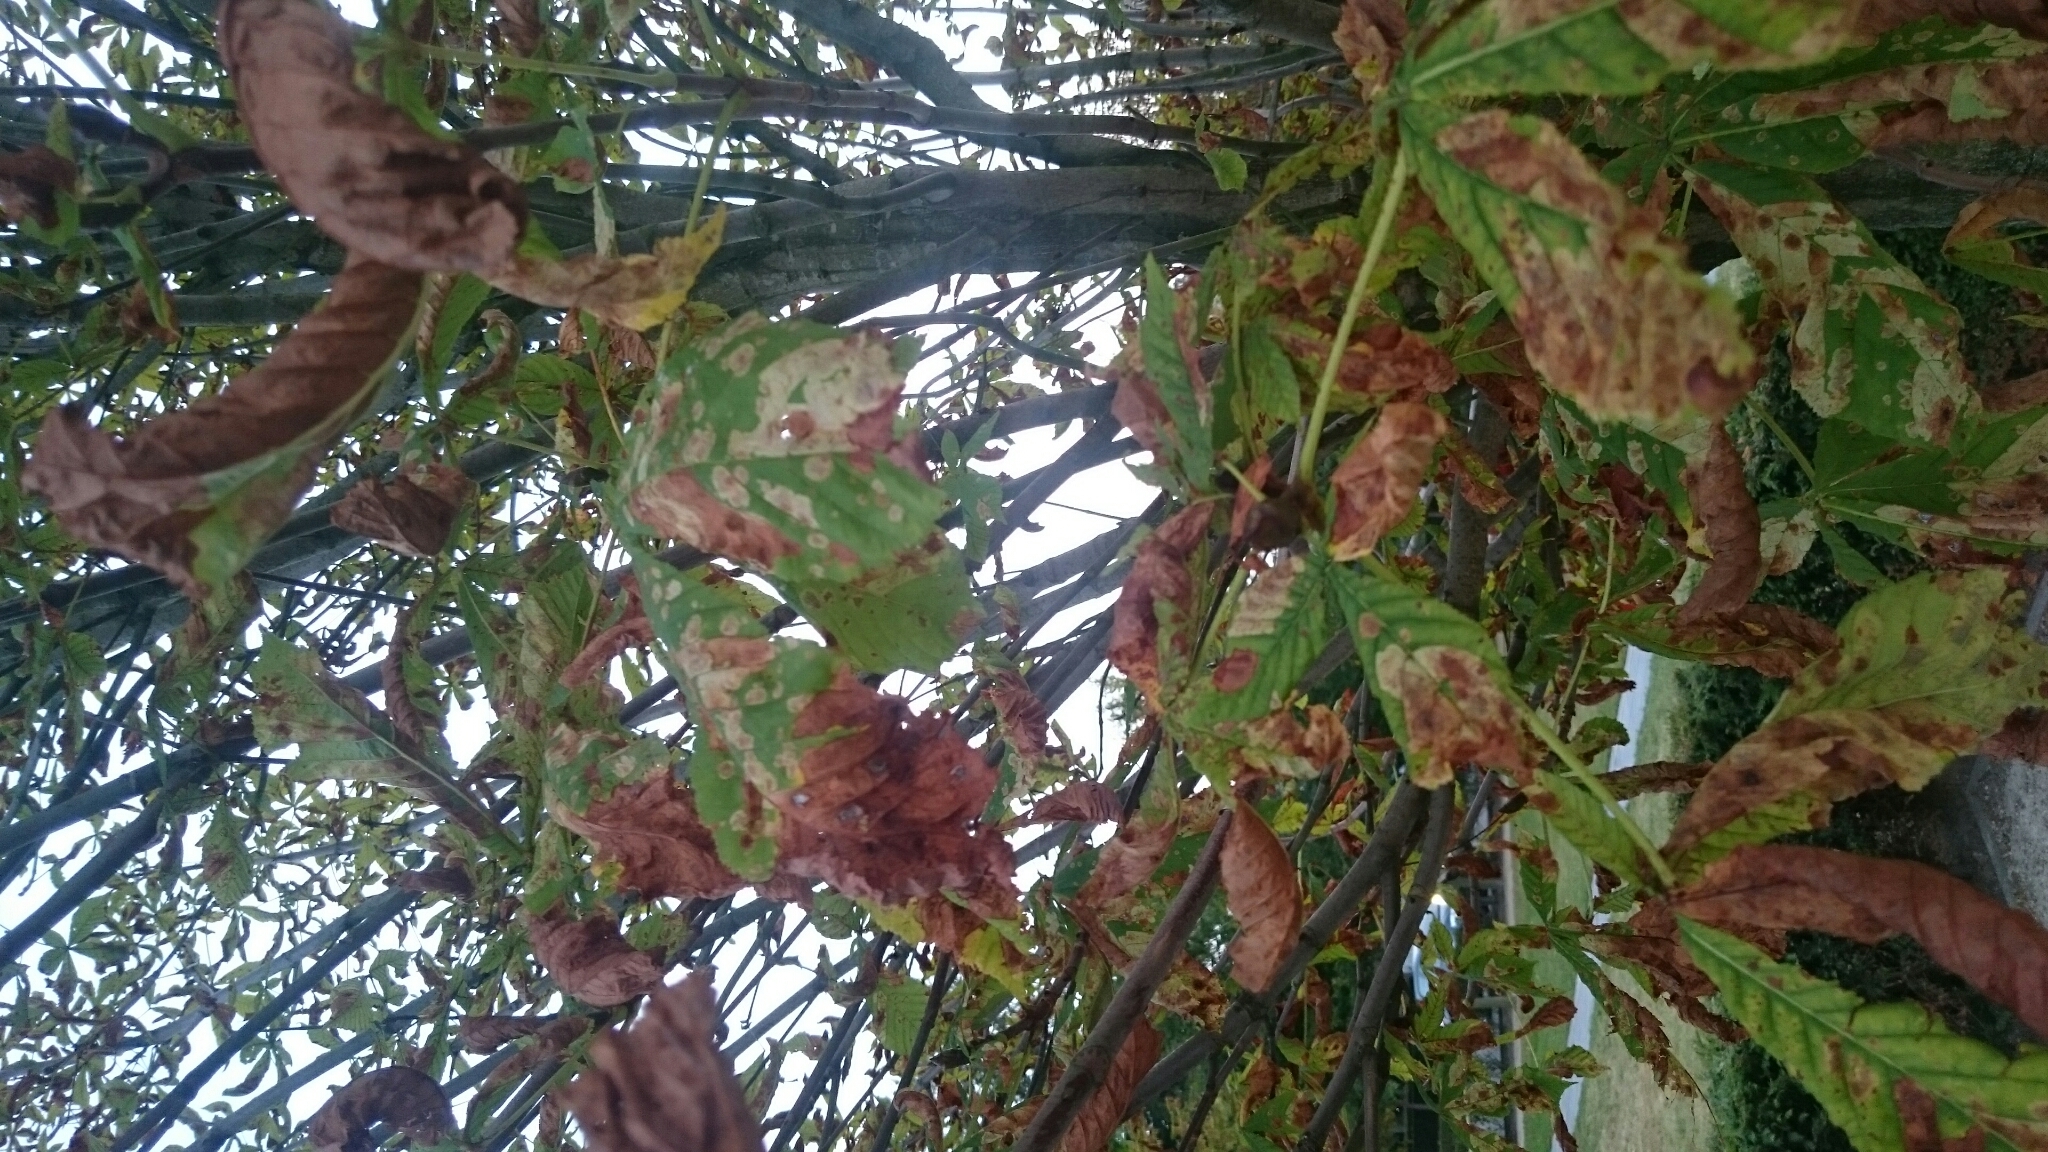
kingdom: Animalia
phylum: Arthropoda
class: Insecta
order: Lepidoptera
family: Gracillariidae
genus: Cameraria
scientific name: Cameraria ohridella
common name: Horse-chestnut leaf-miner
